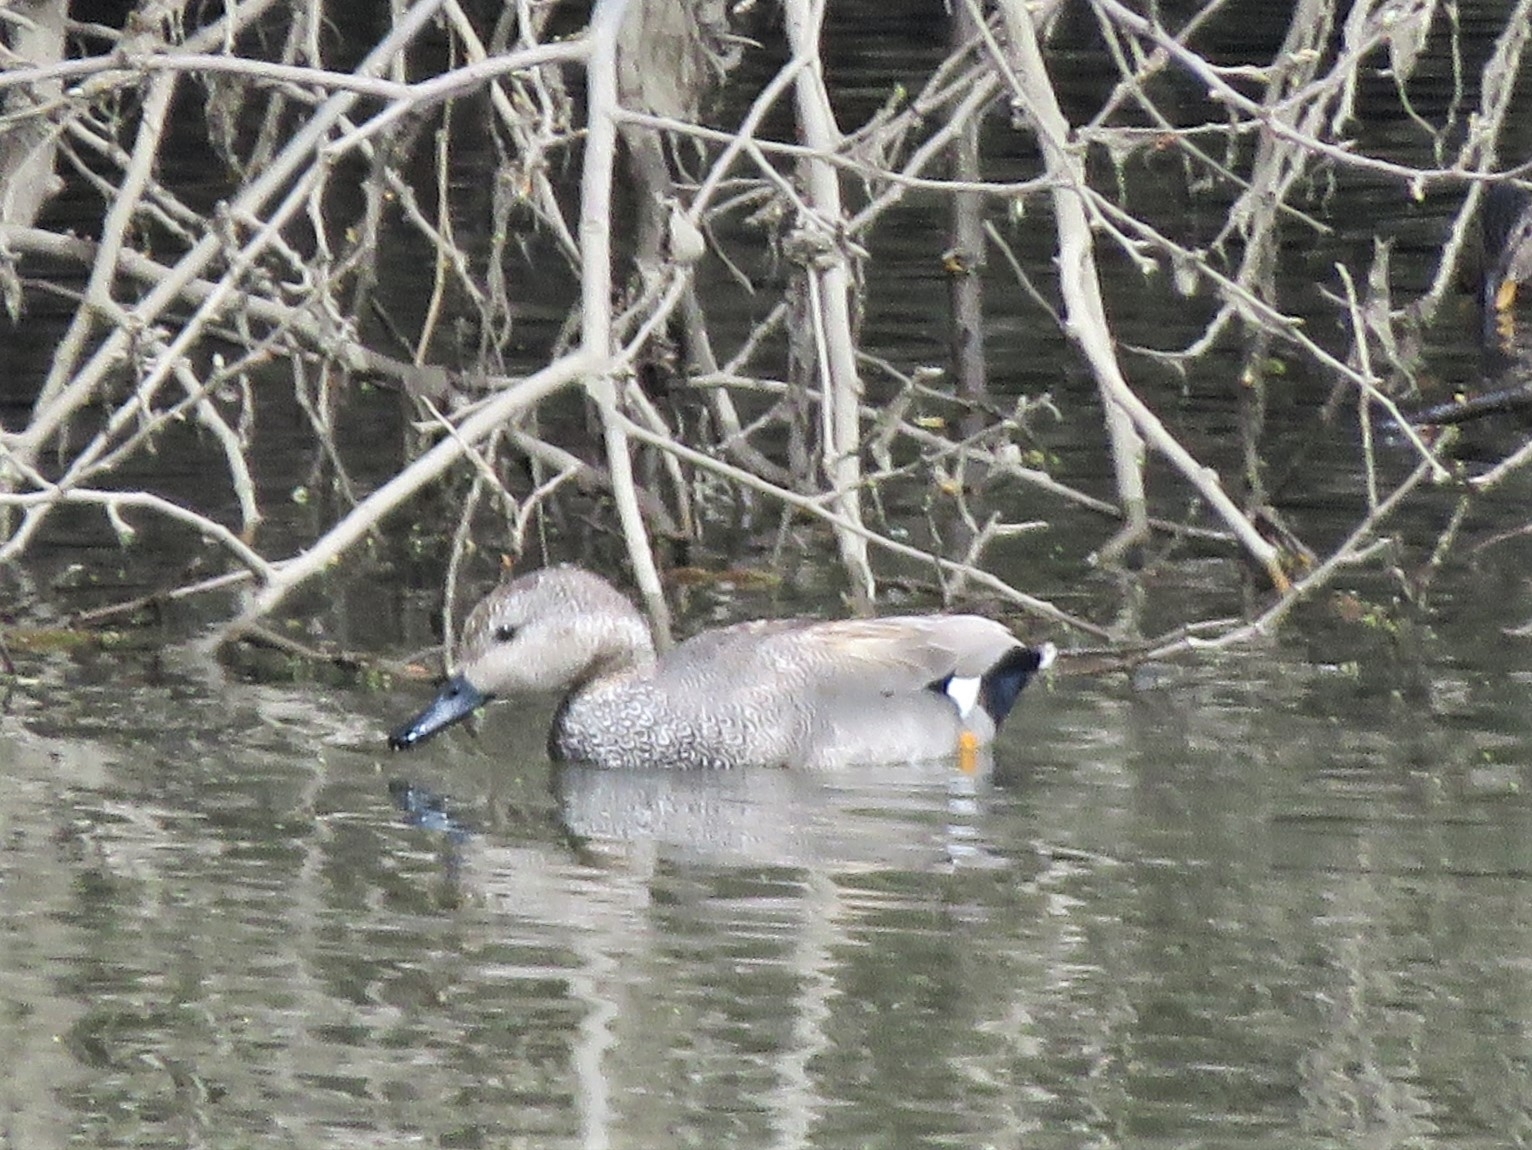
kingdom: Animalia
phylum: Chordata
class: Aves
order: Anseriformes
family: Anatidae
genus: Mareca
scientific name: Mareca strepera
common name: Gadwall
